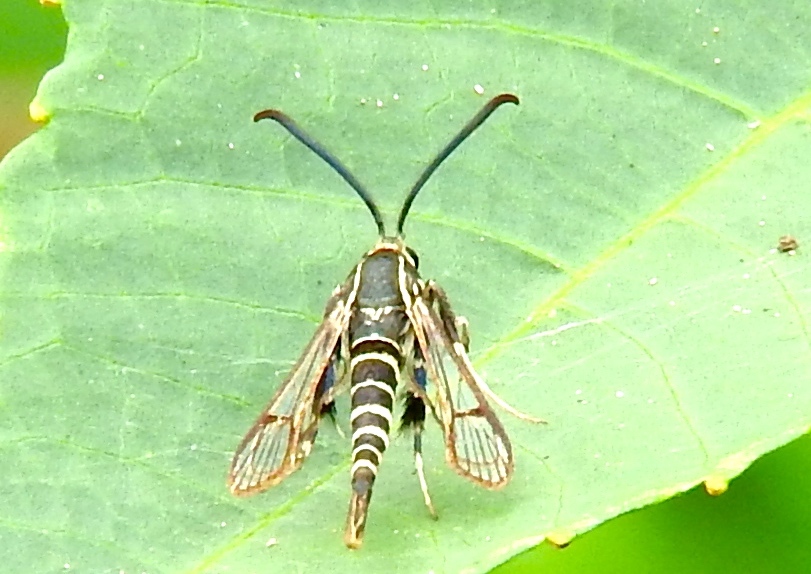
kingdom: Animalia
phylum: Arthropoda
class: Insecta
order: Lepidoptera
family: Sesiidae
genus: Carmenta
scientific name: Carmenta
